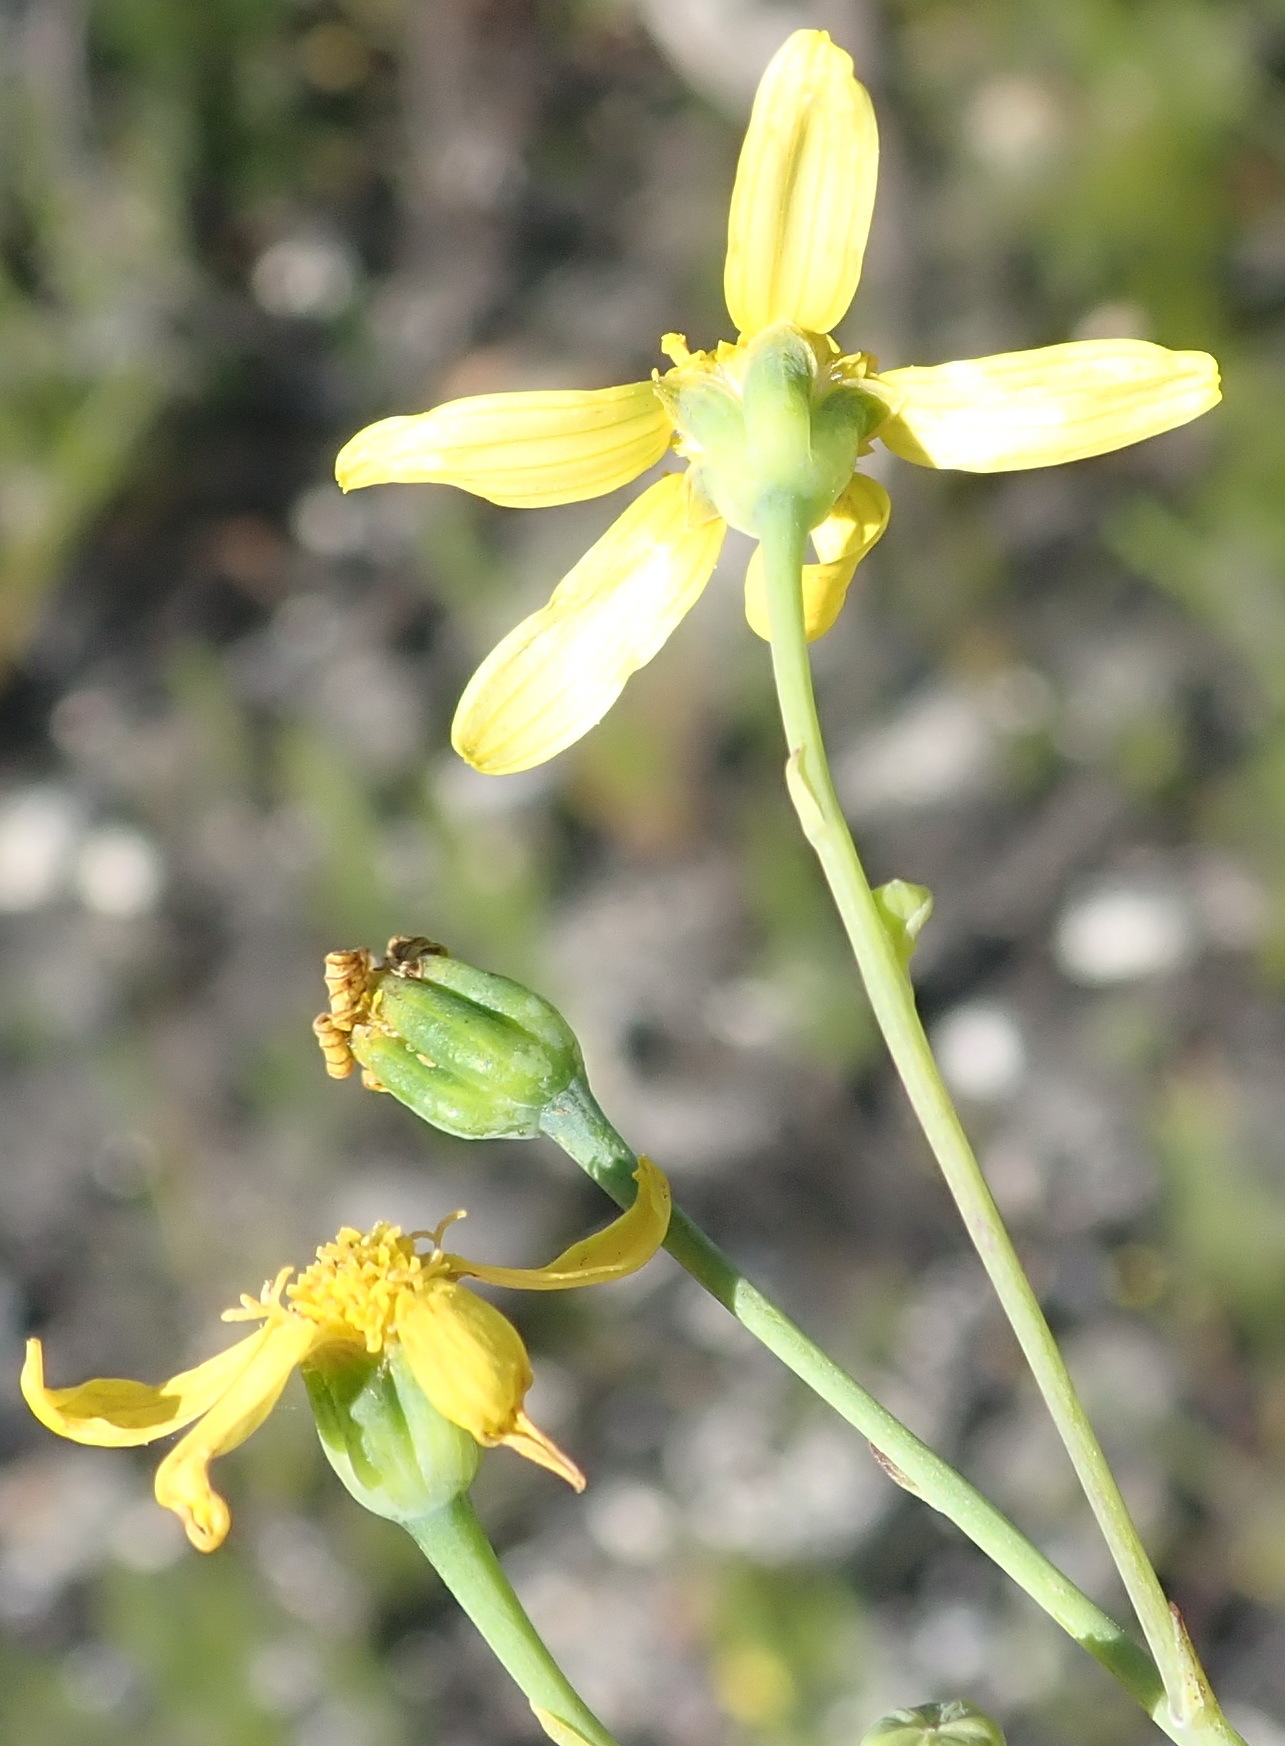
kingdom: Plantae
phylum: Tracheophyta
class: Magnoliopsida
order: Asterales
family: Asteraceae
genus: Othonna
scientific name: Othonna quinquedentata
